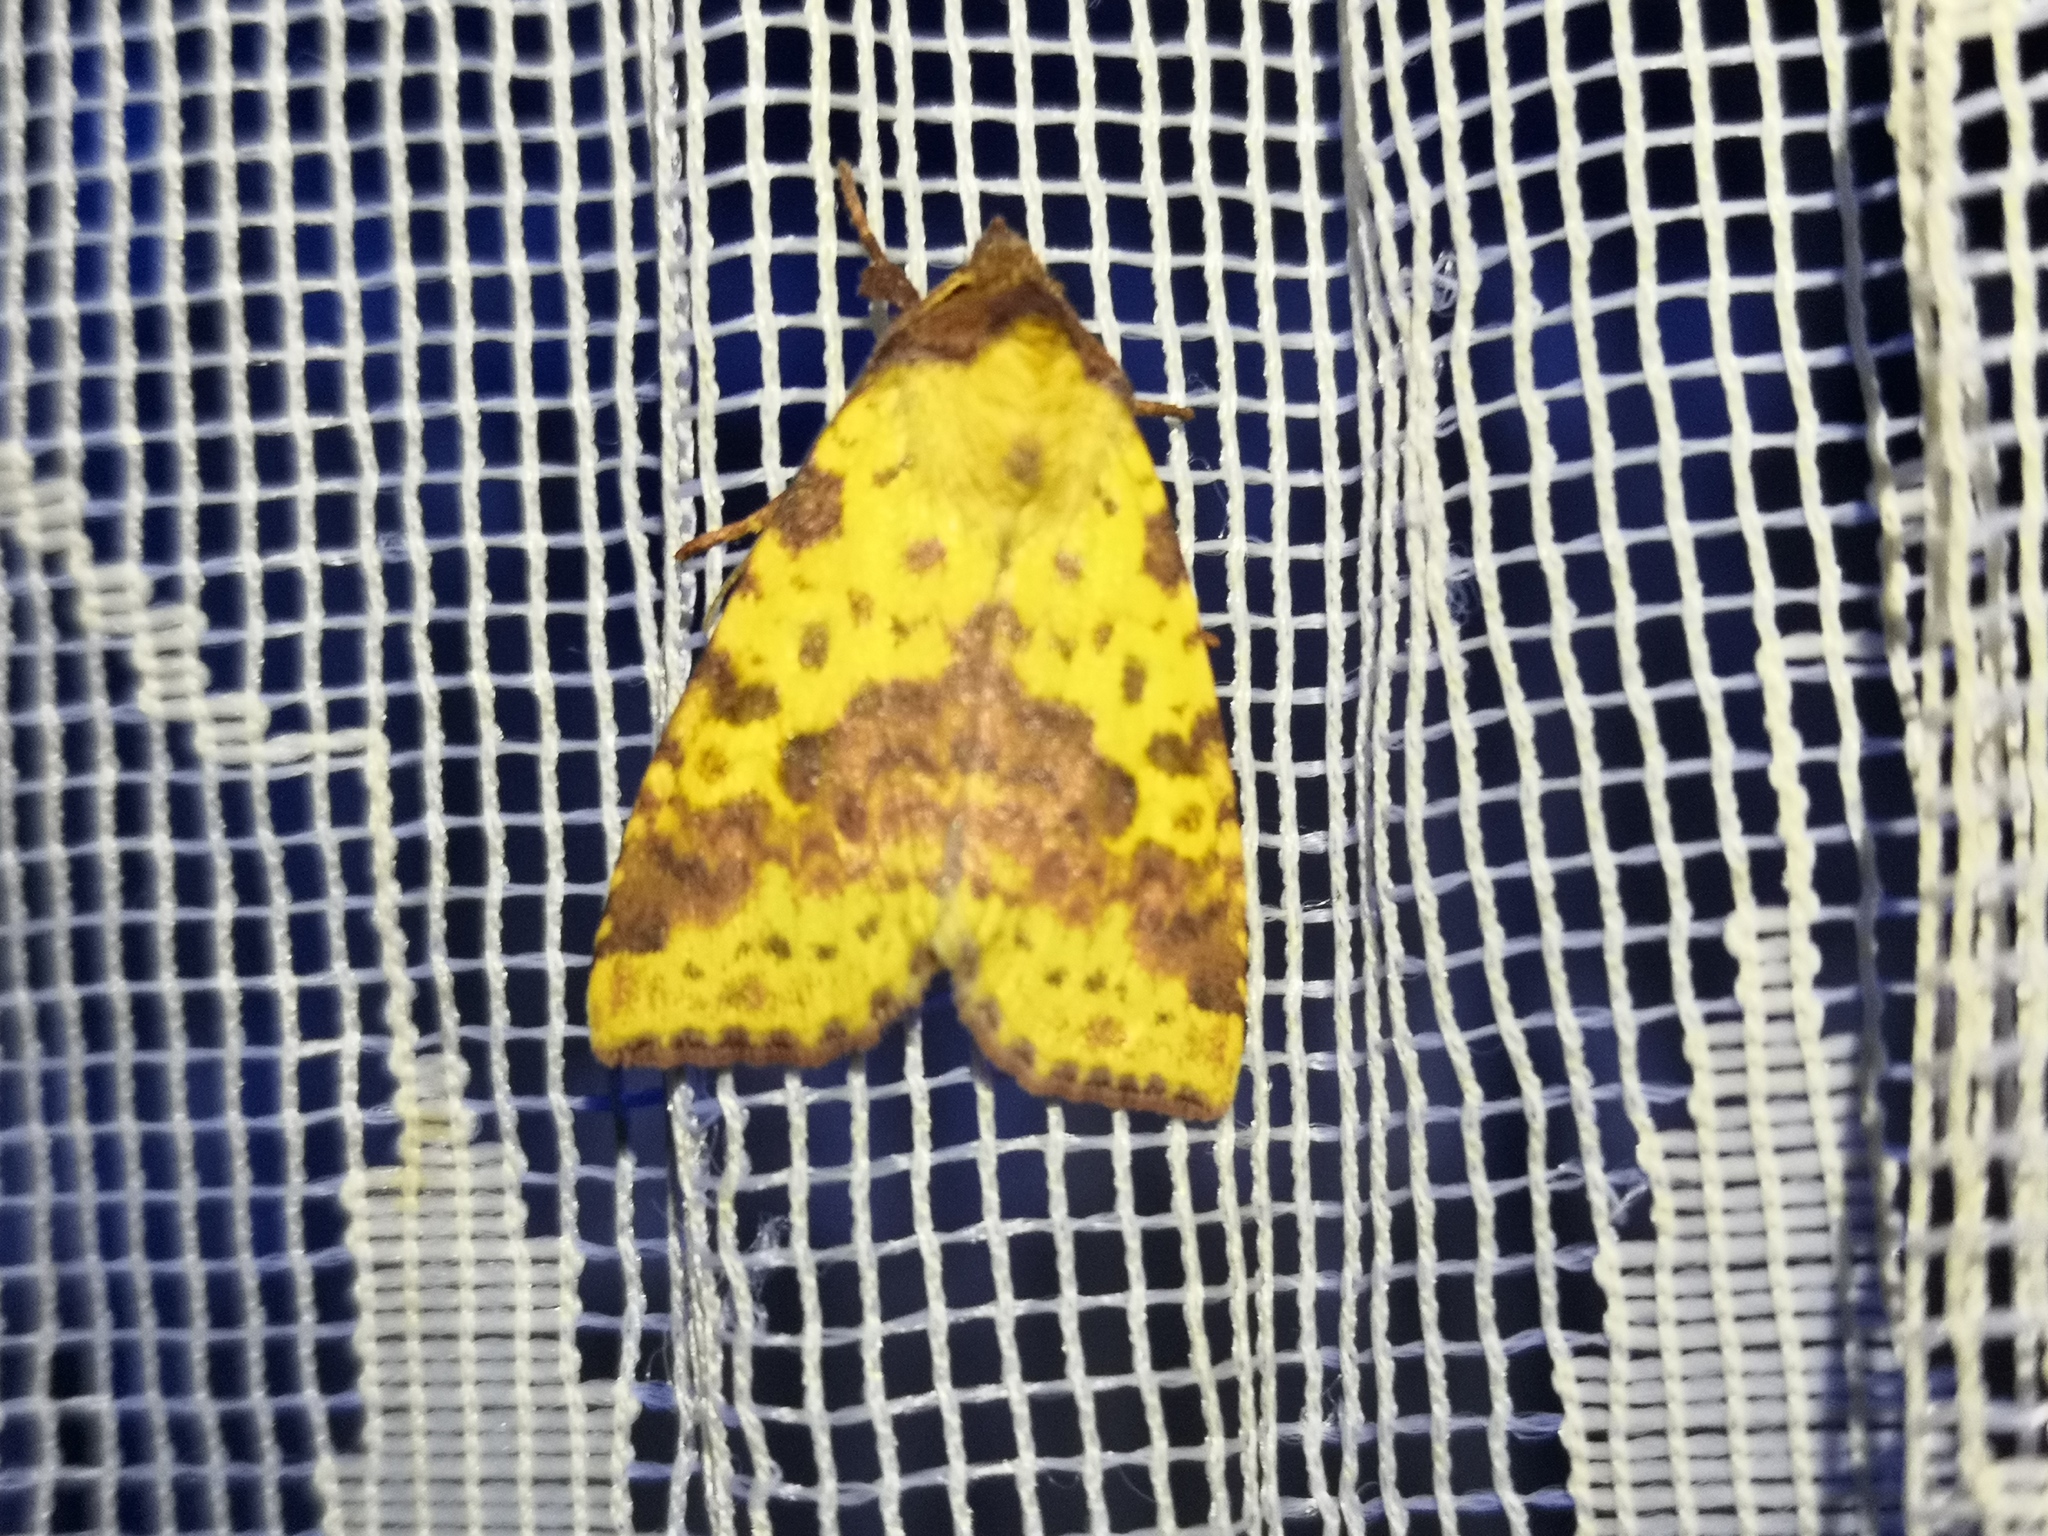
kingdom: Animalia
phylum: Arthropoda
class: Insecta
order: Lepidoptera
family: Noctuidae
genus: Xanthia
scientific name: Xanthia togata
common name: Pink-barred sallow
